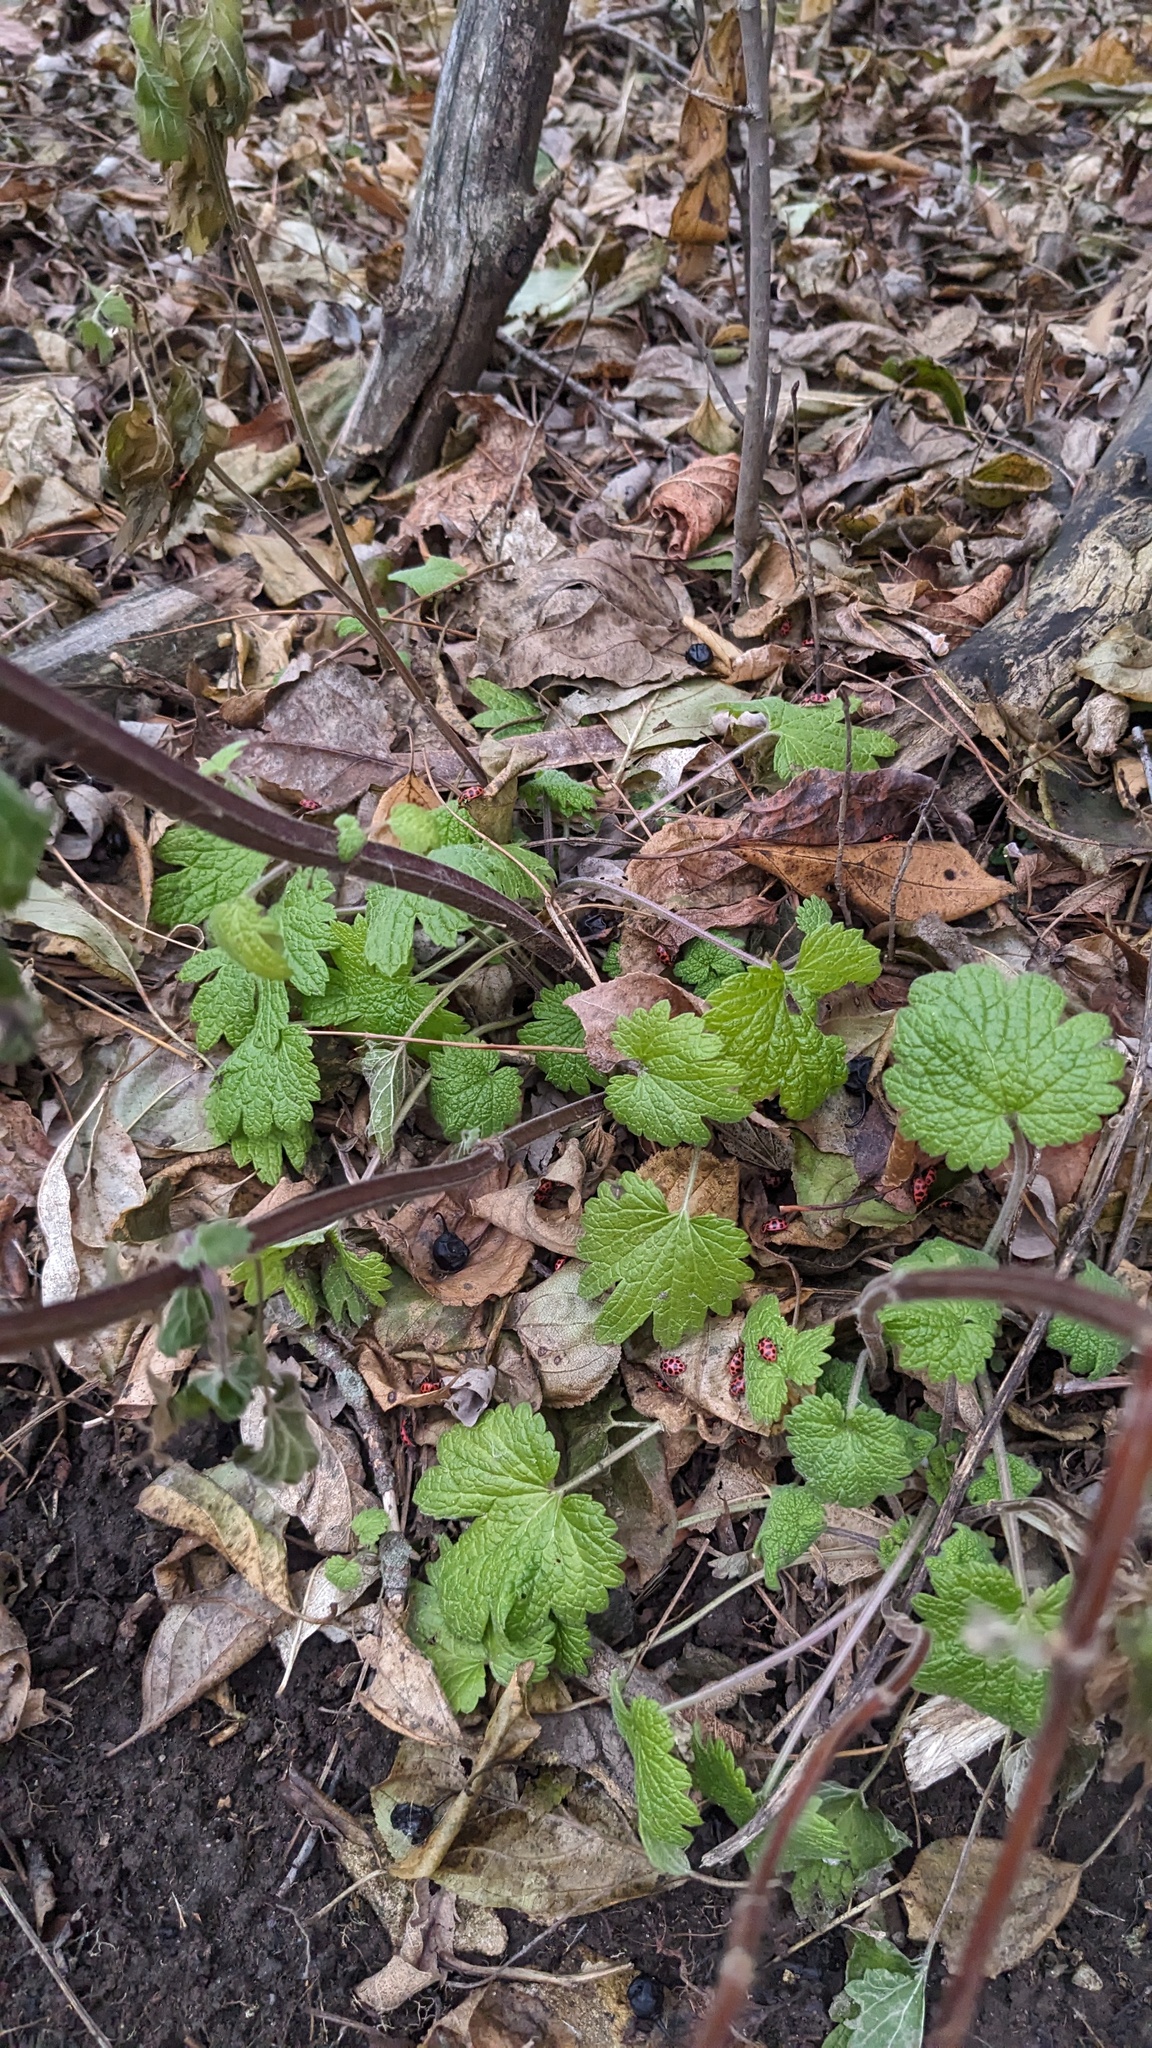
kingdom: Plantae
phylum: Tracheophyta
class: Magnoliopsida
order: Lamiales
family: Lamiaceae
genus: Leonurus
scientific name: Leonurus cardiaca
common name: Motherwort
